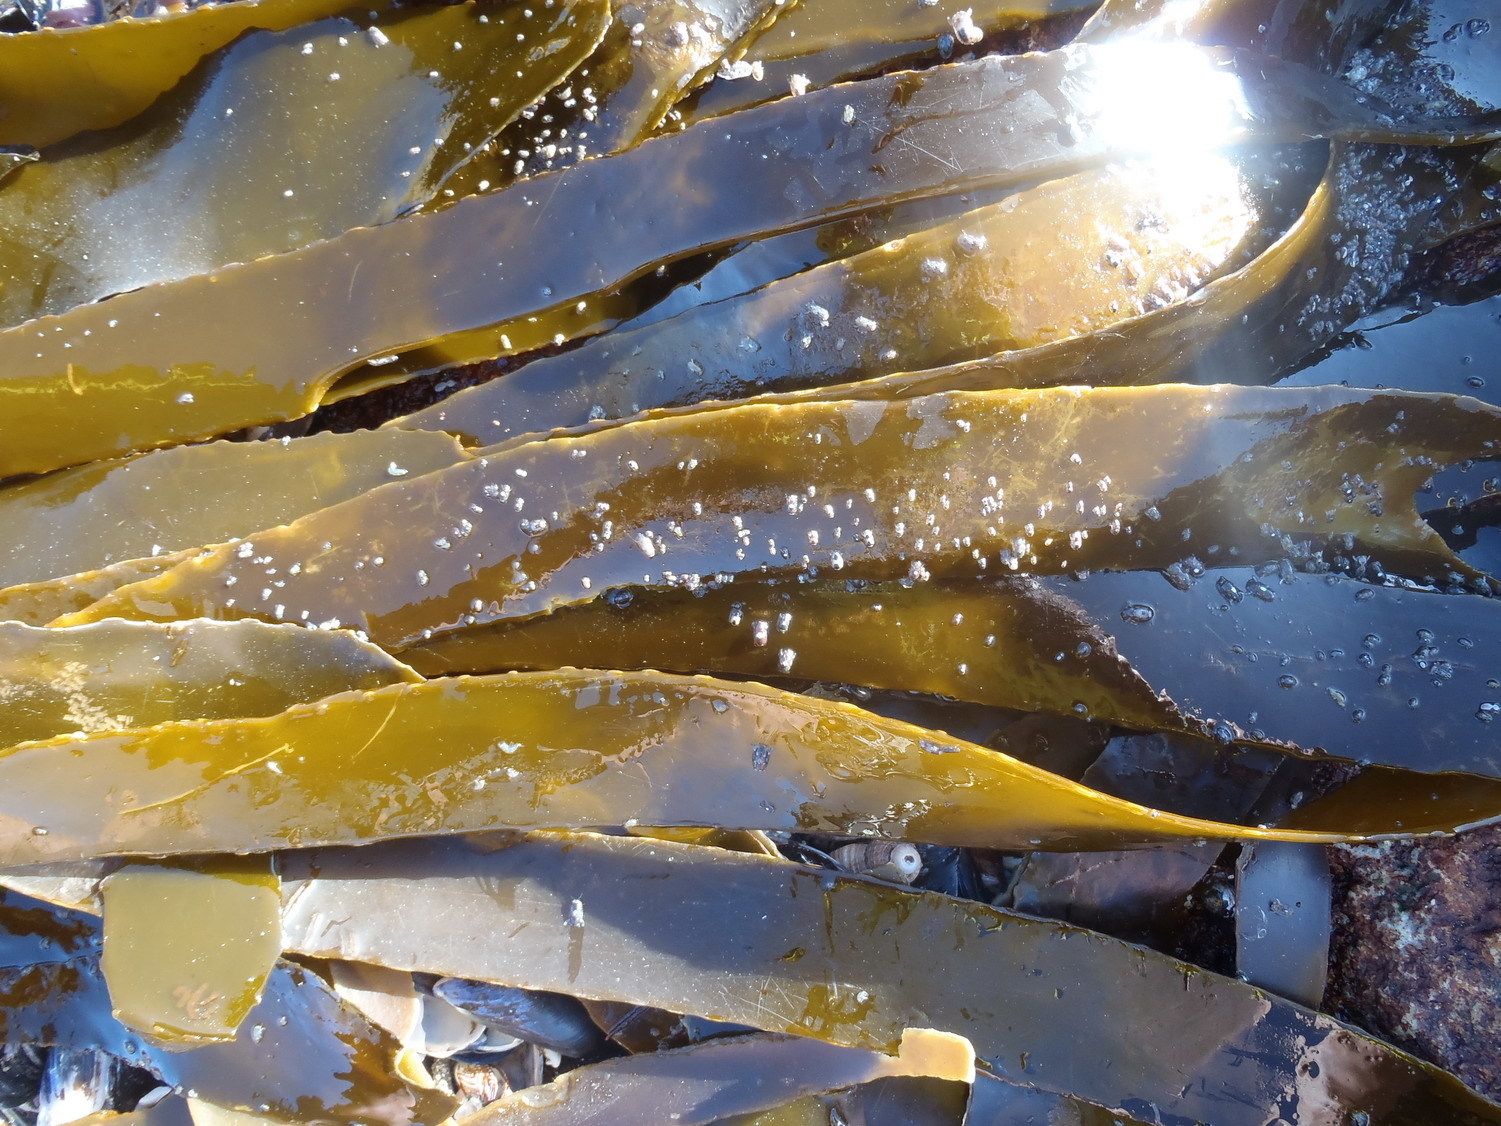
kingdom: Chromista
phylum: Ochrophyta
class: Phaeophyceae
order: Laminariales
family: Lessoniaceae
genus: Ecklonia
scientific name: Ecklonia
